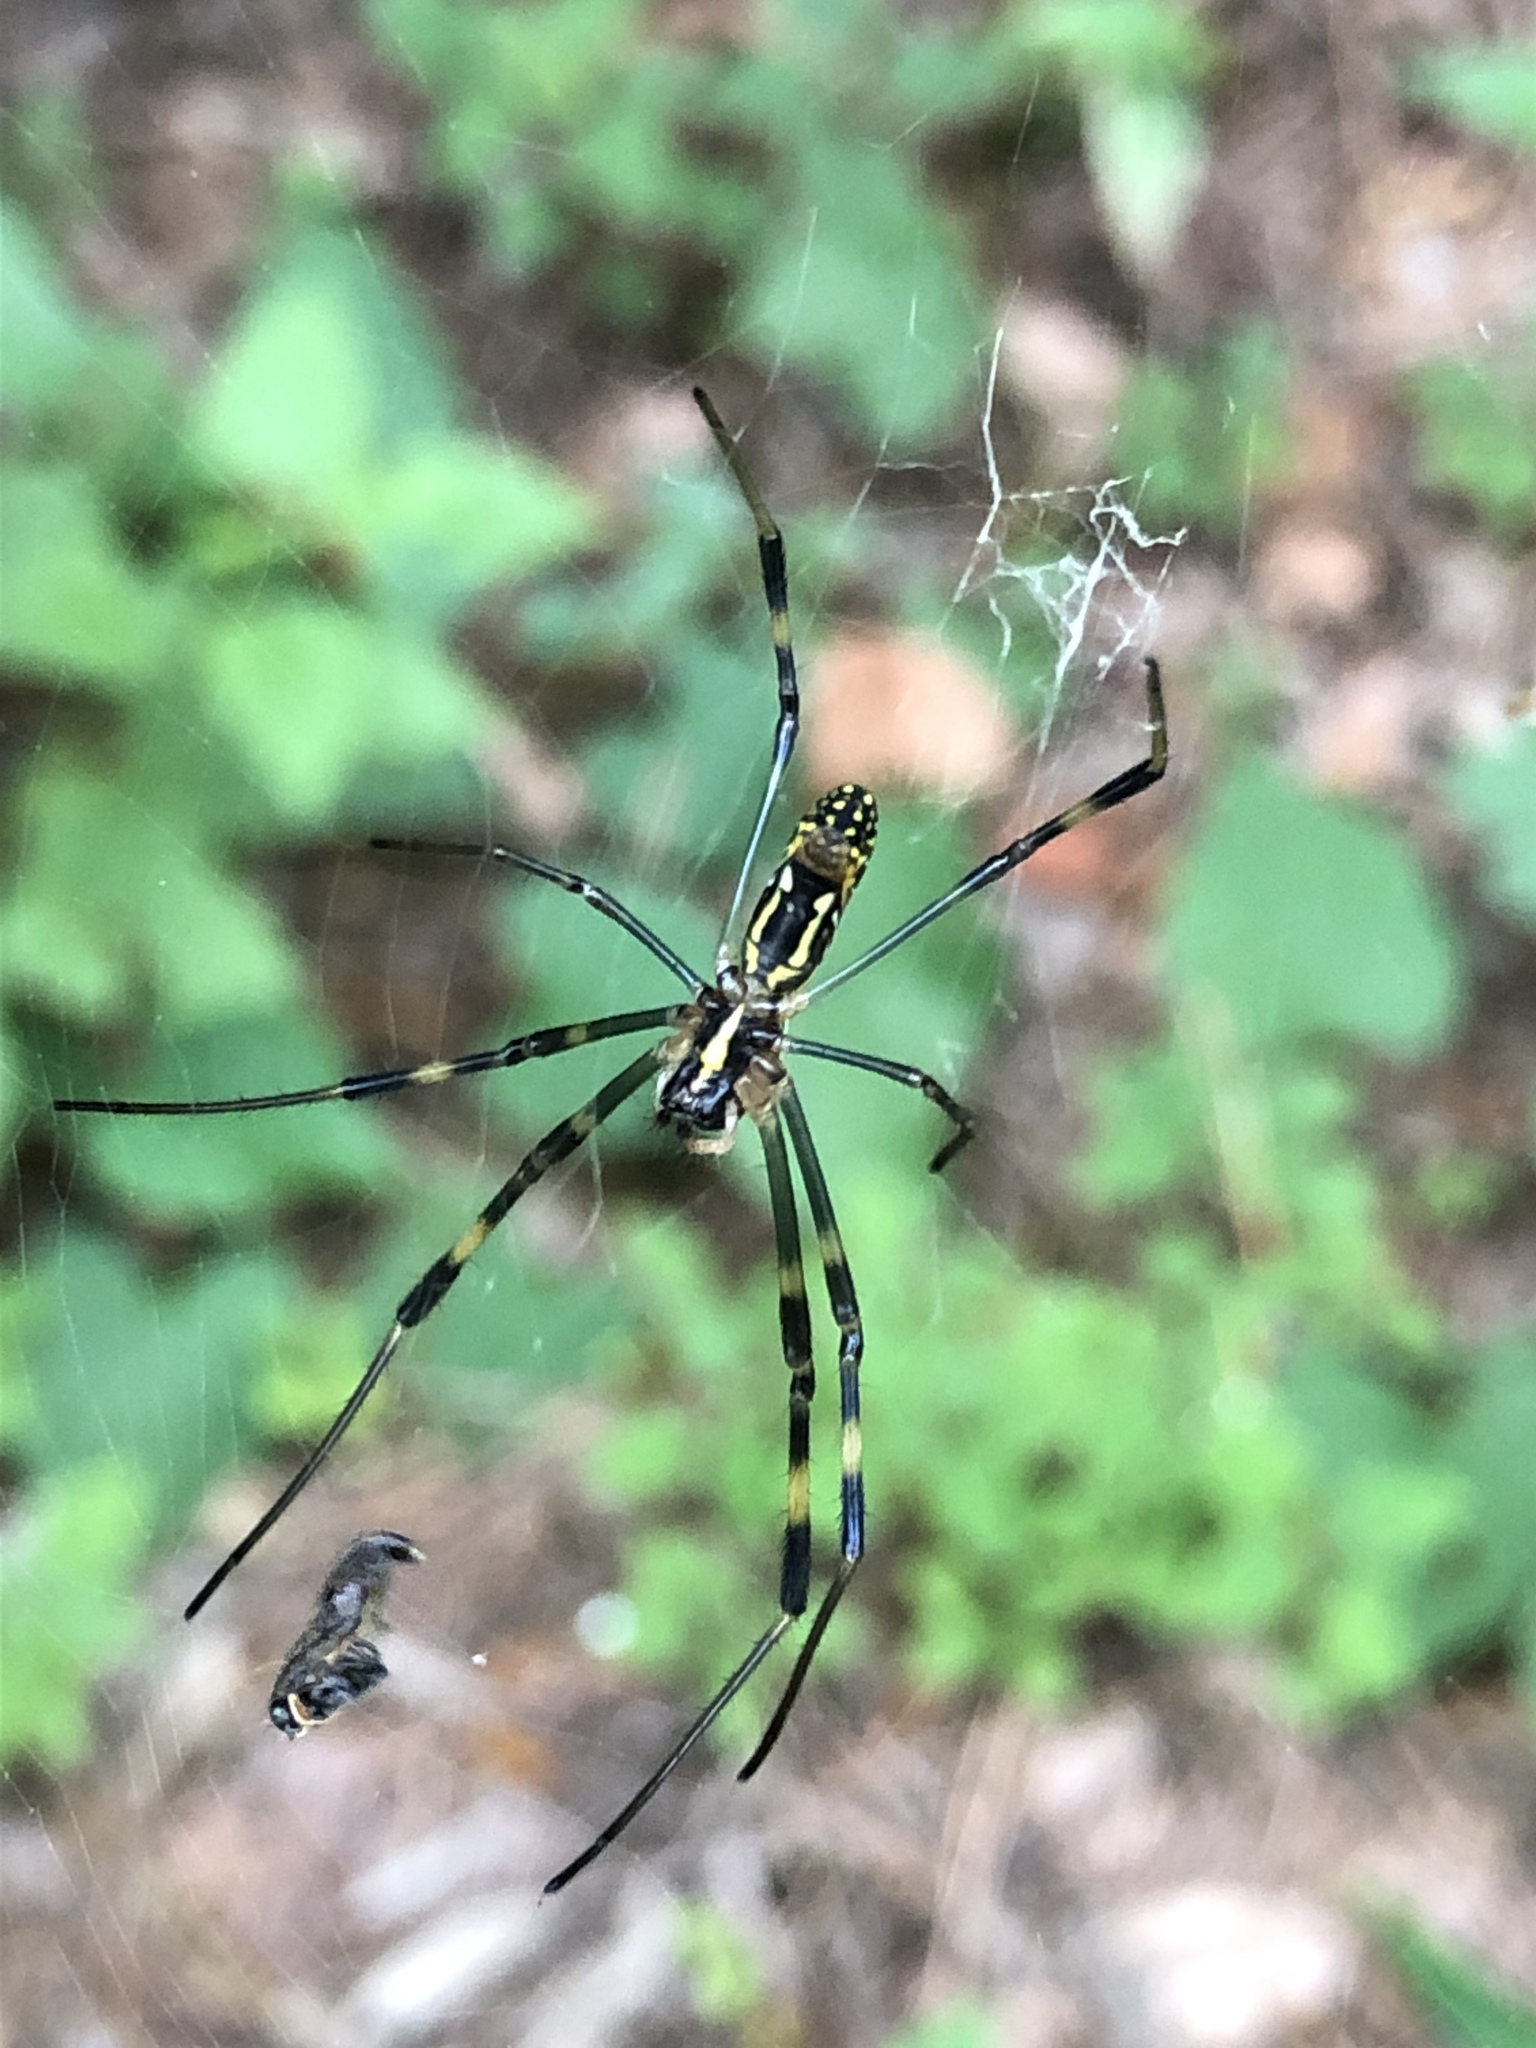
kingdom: Animalia
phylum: Arthropoda
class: Arachnida
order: Araneae
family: Araneidae
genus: Trichonephila
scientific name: Trichonephila clavata
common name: Jorō spider
